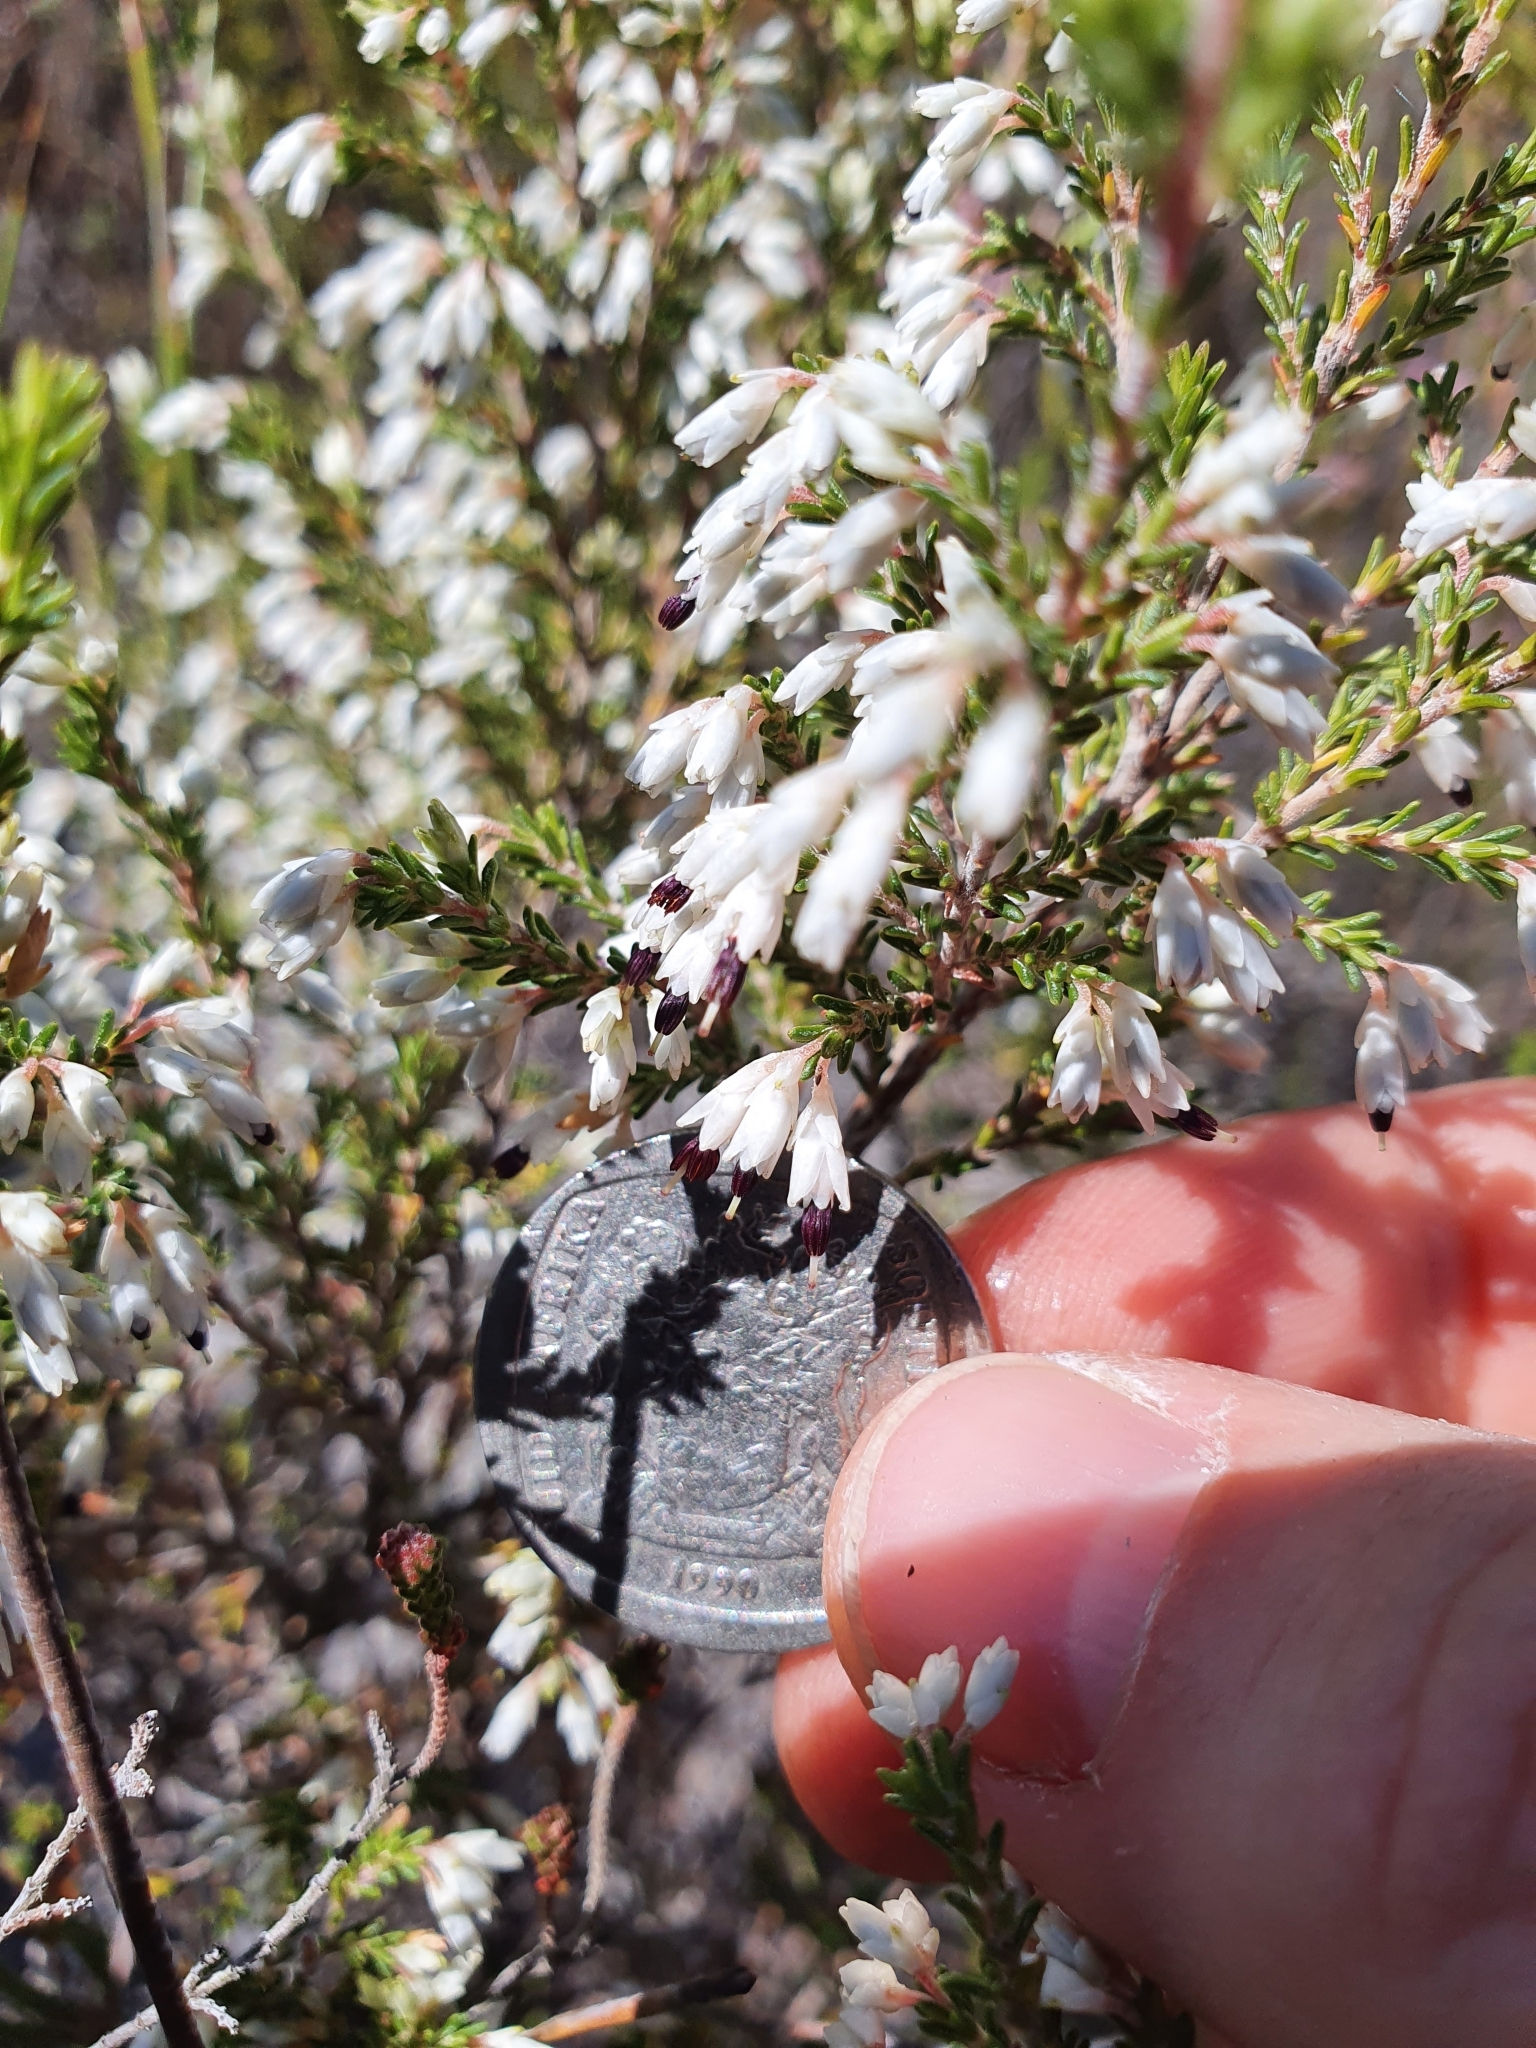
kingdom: Plantae
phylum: Tracheophyta
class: Magnoliopsida
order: Ericales
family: Ericaceae
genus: Erica
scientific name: Erica imbricata
